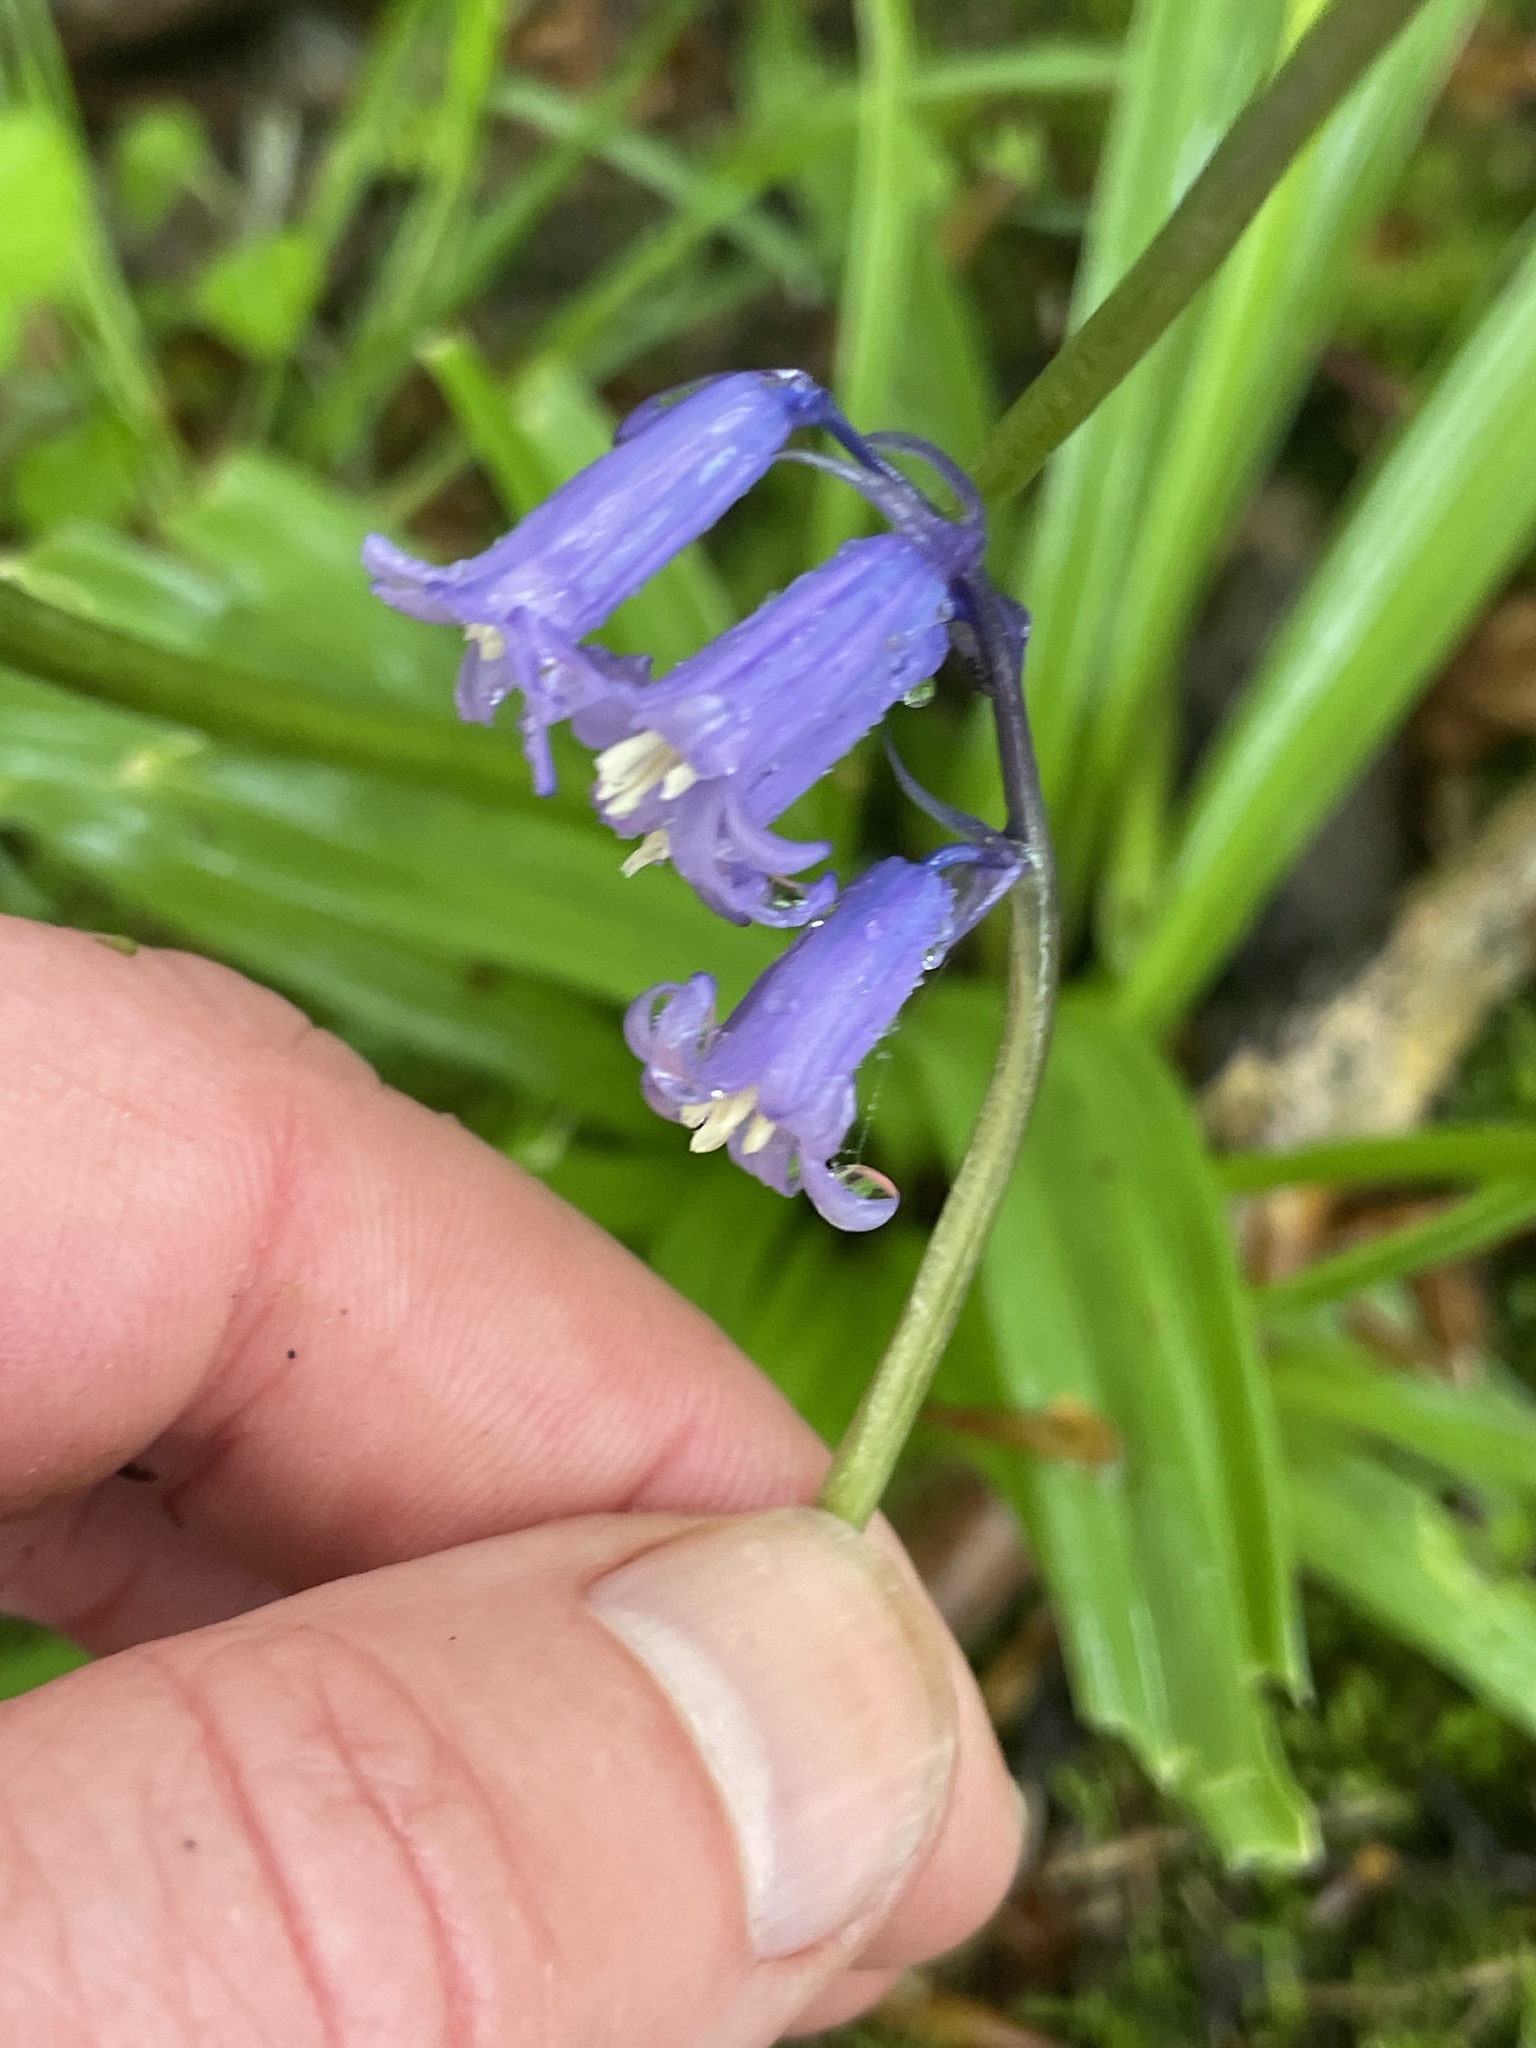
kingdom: Plantae
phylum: Tracheophyta
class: Liliopsida
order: Asparagales
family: Asparagaceae
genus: Hyacinthoides
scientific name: Hyacinthoides non-scripta
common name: Bluebell
